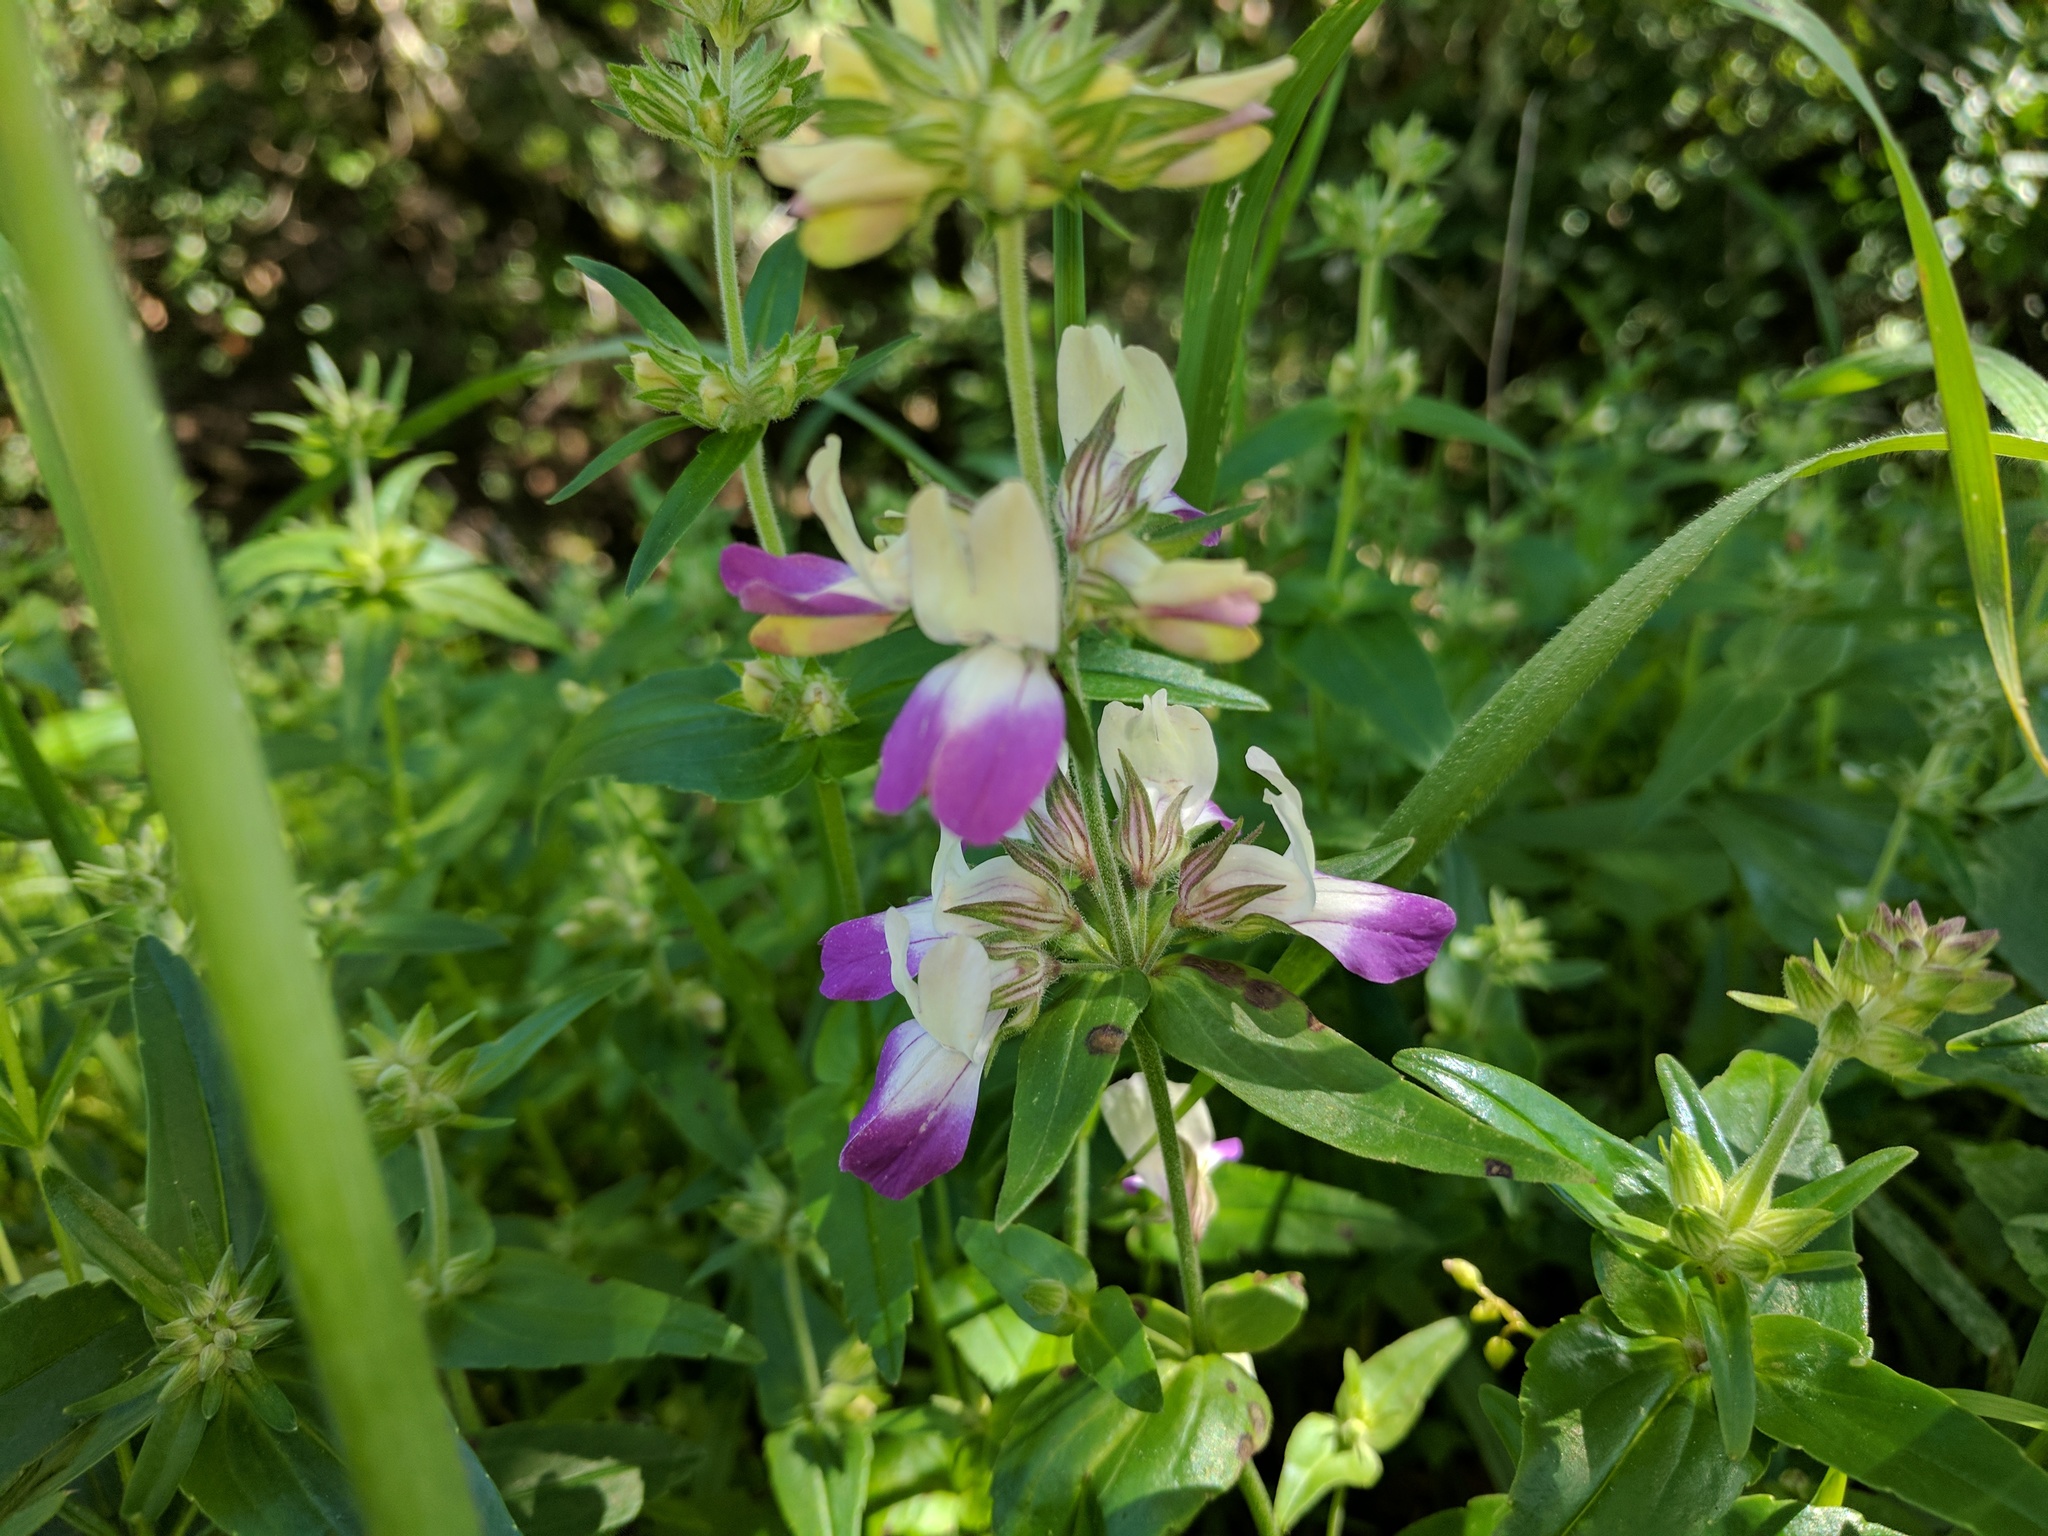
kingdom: Plantae
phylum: Tracheophyta
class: Magnoliopsida
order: Lamiales
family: Plantaginaceae
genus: Collinsia
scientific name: Collinsia heterophylla
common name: Chinese-houses
